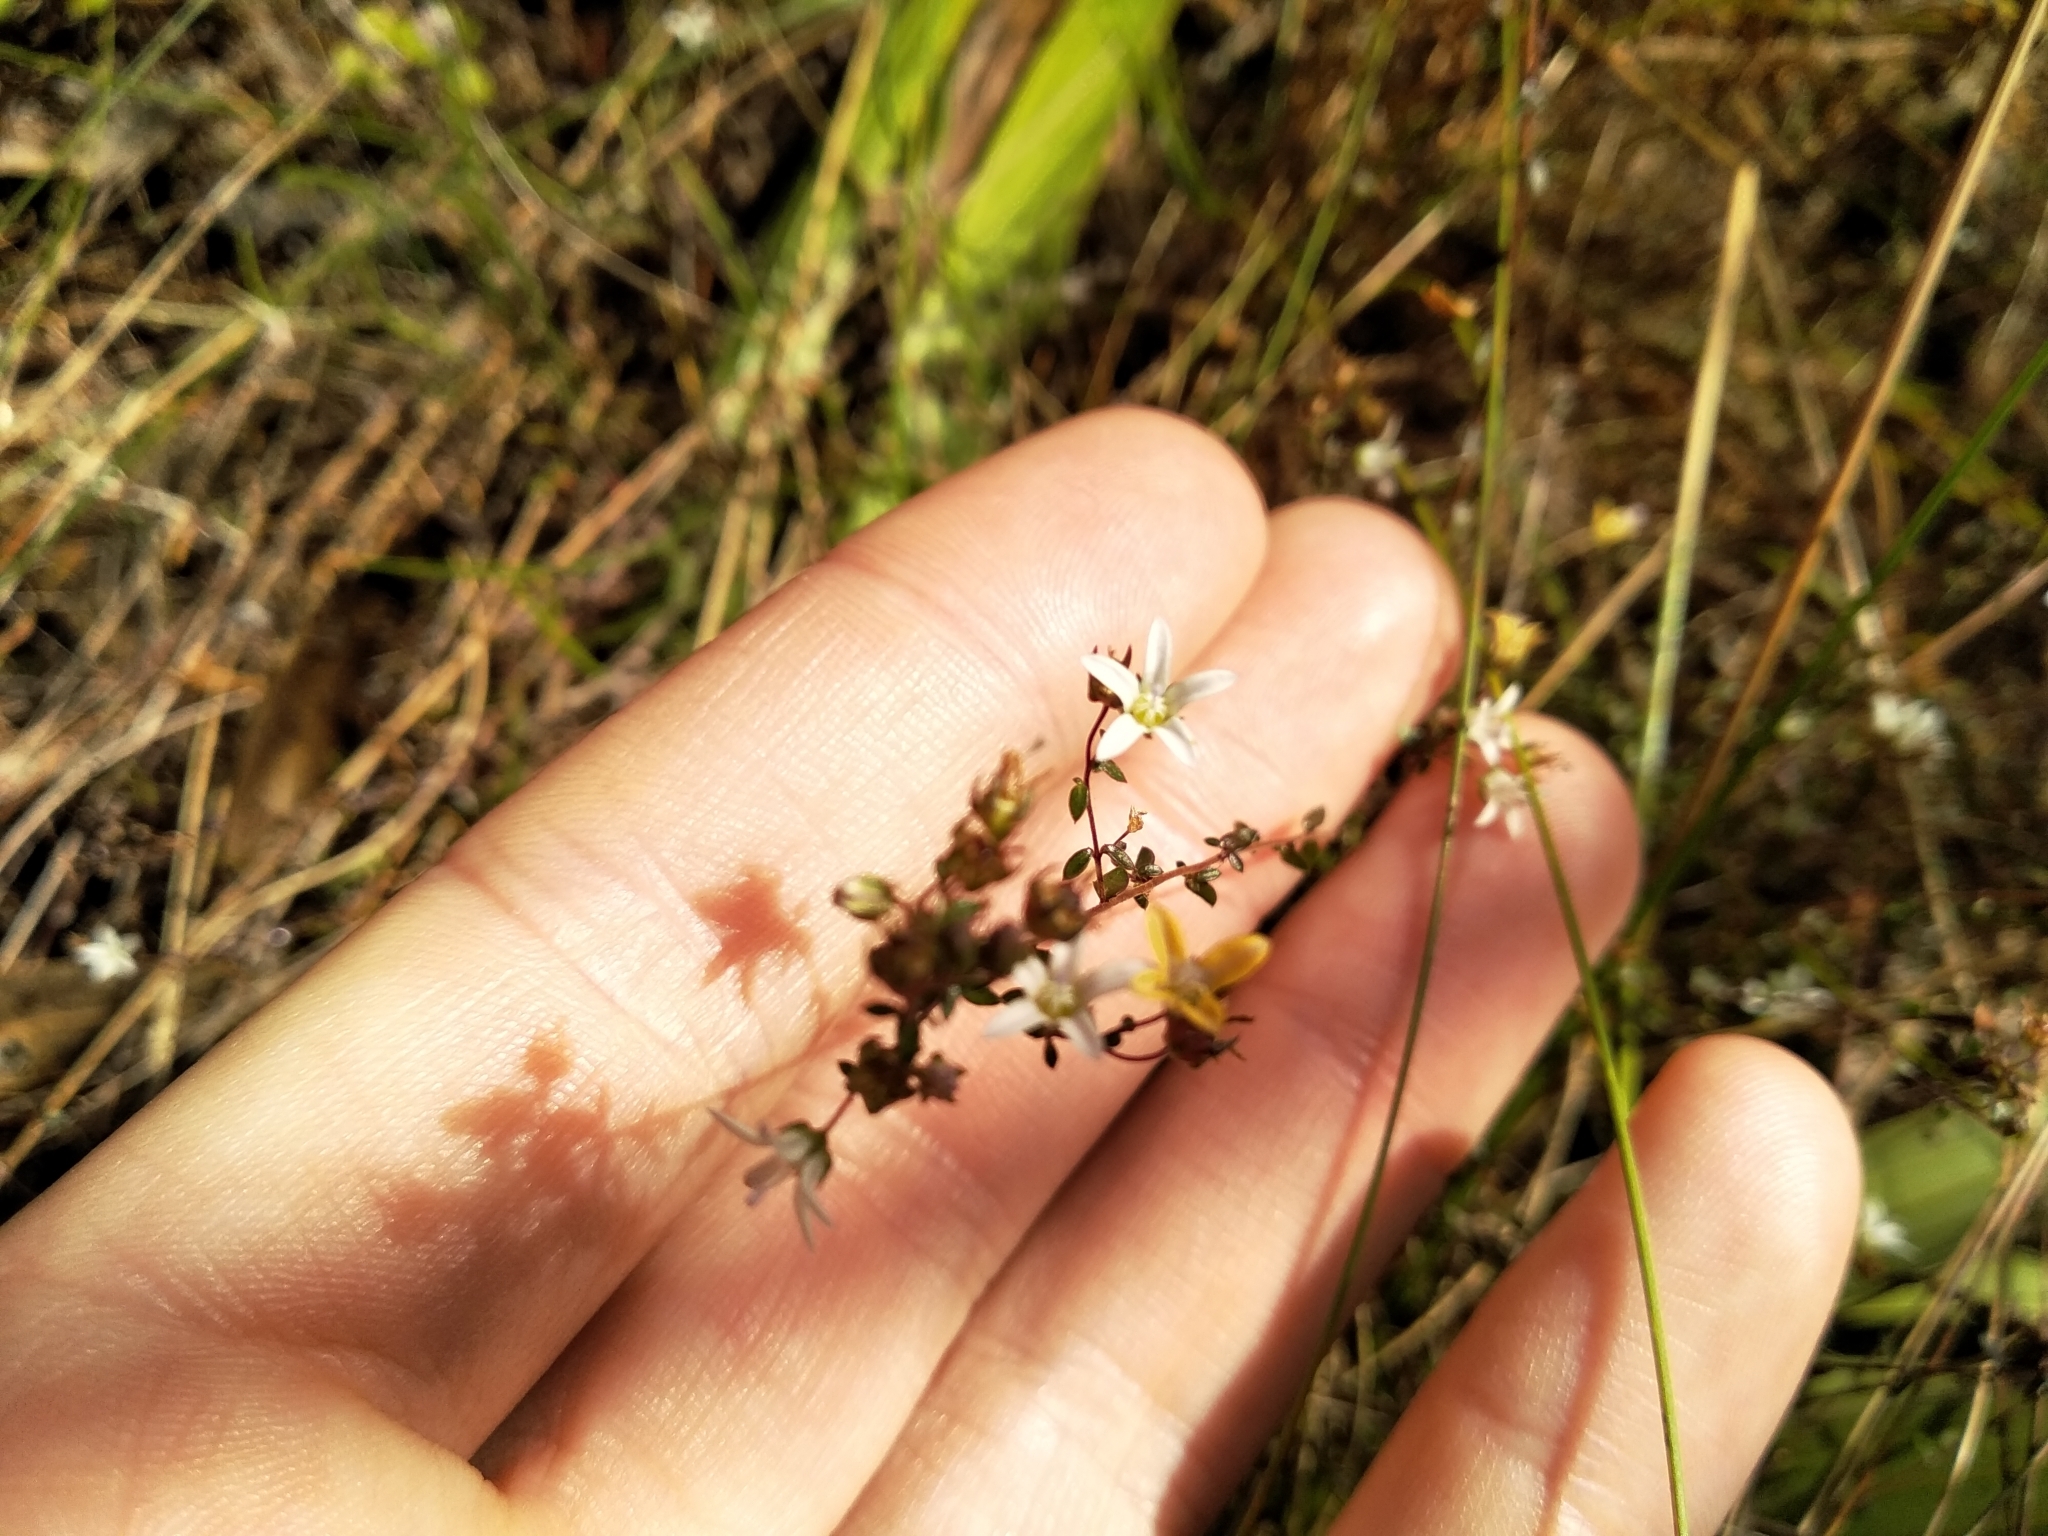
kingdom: Plantae
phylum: Tracheophyta
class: Magnoliopsida
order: Asterales
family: Campanulaceae
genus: Wahlenbergia
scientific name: Wahlenbergia parvifolia
